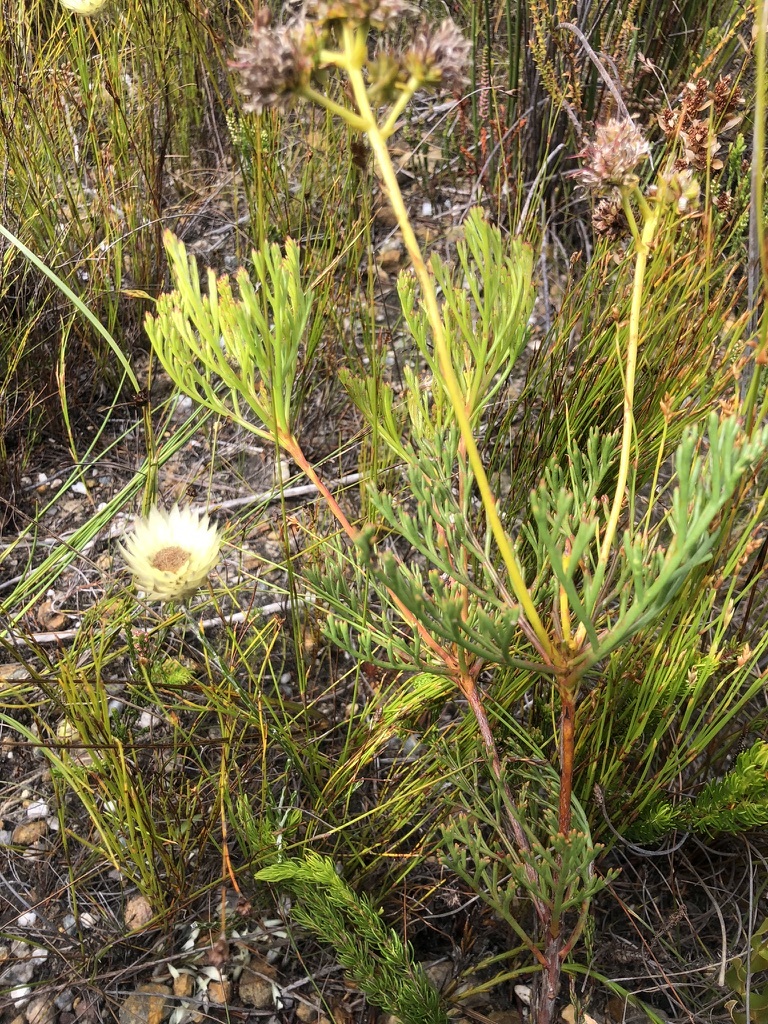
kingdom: Plantae
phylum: Tracheophyta
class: Magnoliopsida
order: Proteales
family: Proteaceae
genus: Serruria
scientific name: Serruria elongata
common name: Long-stalk spiderhead
